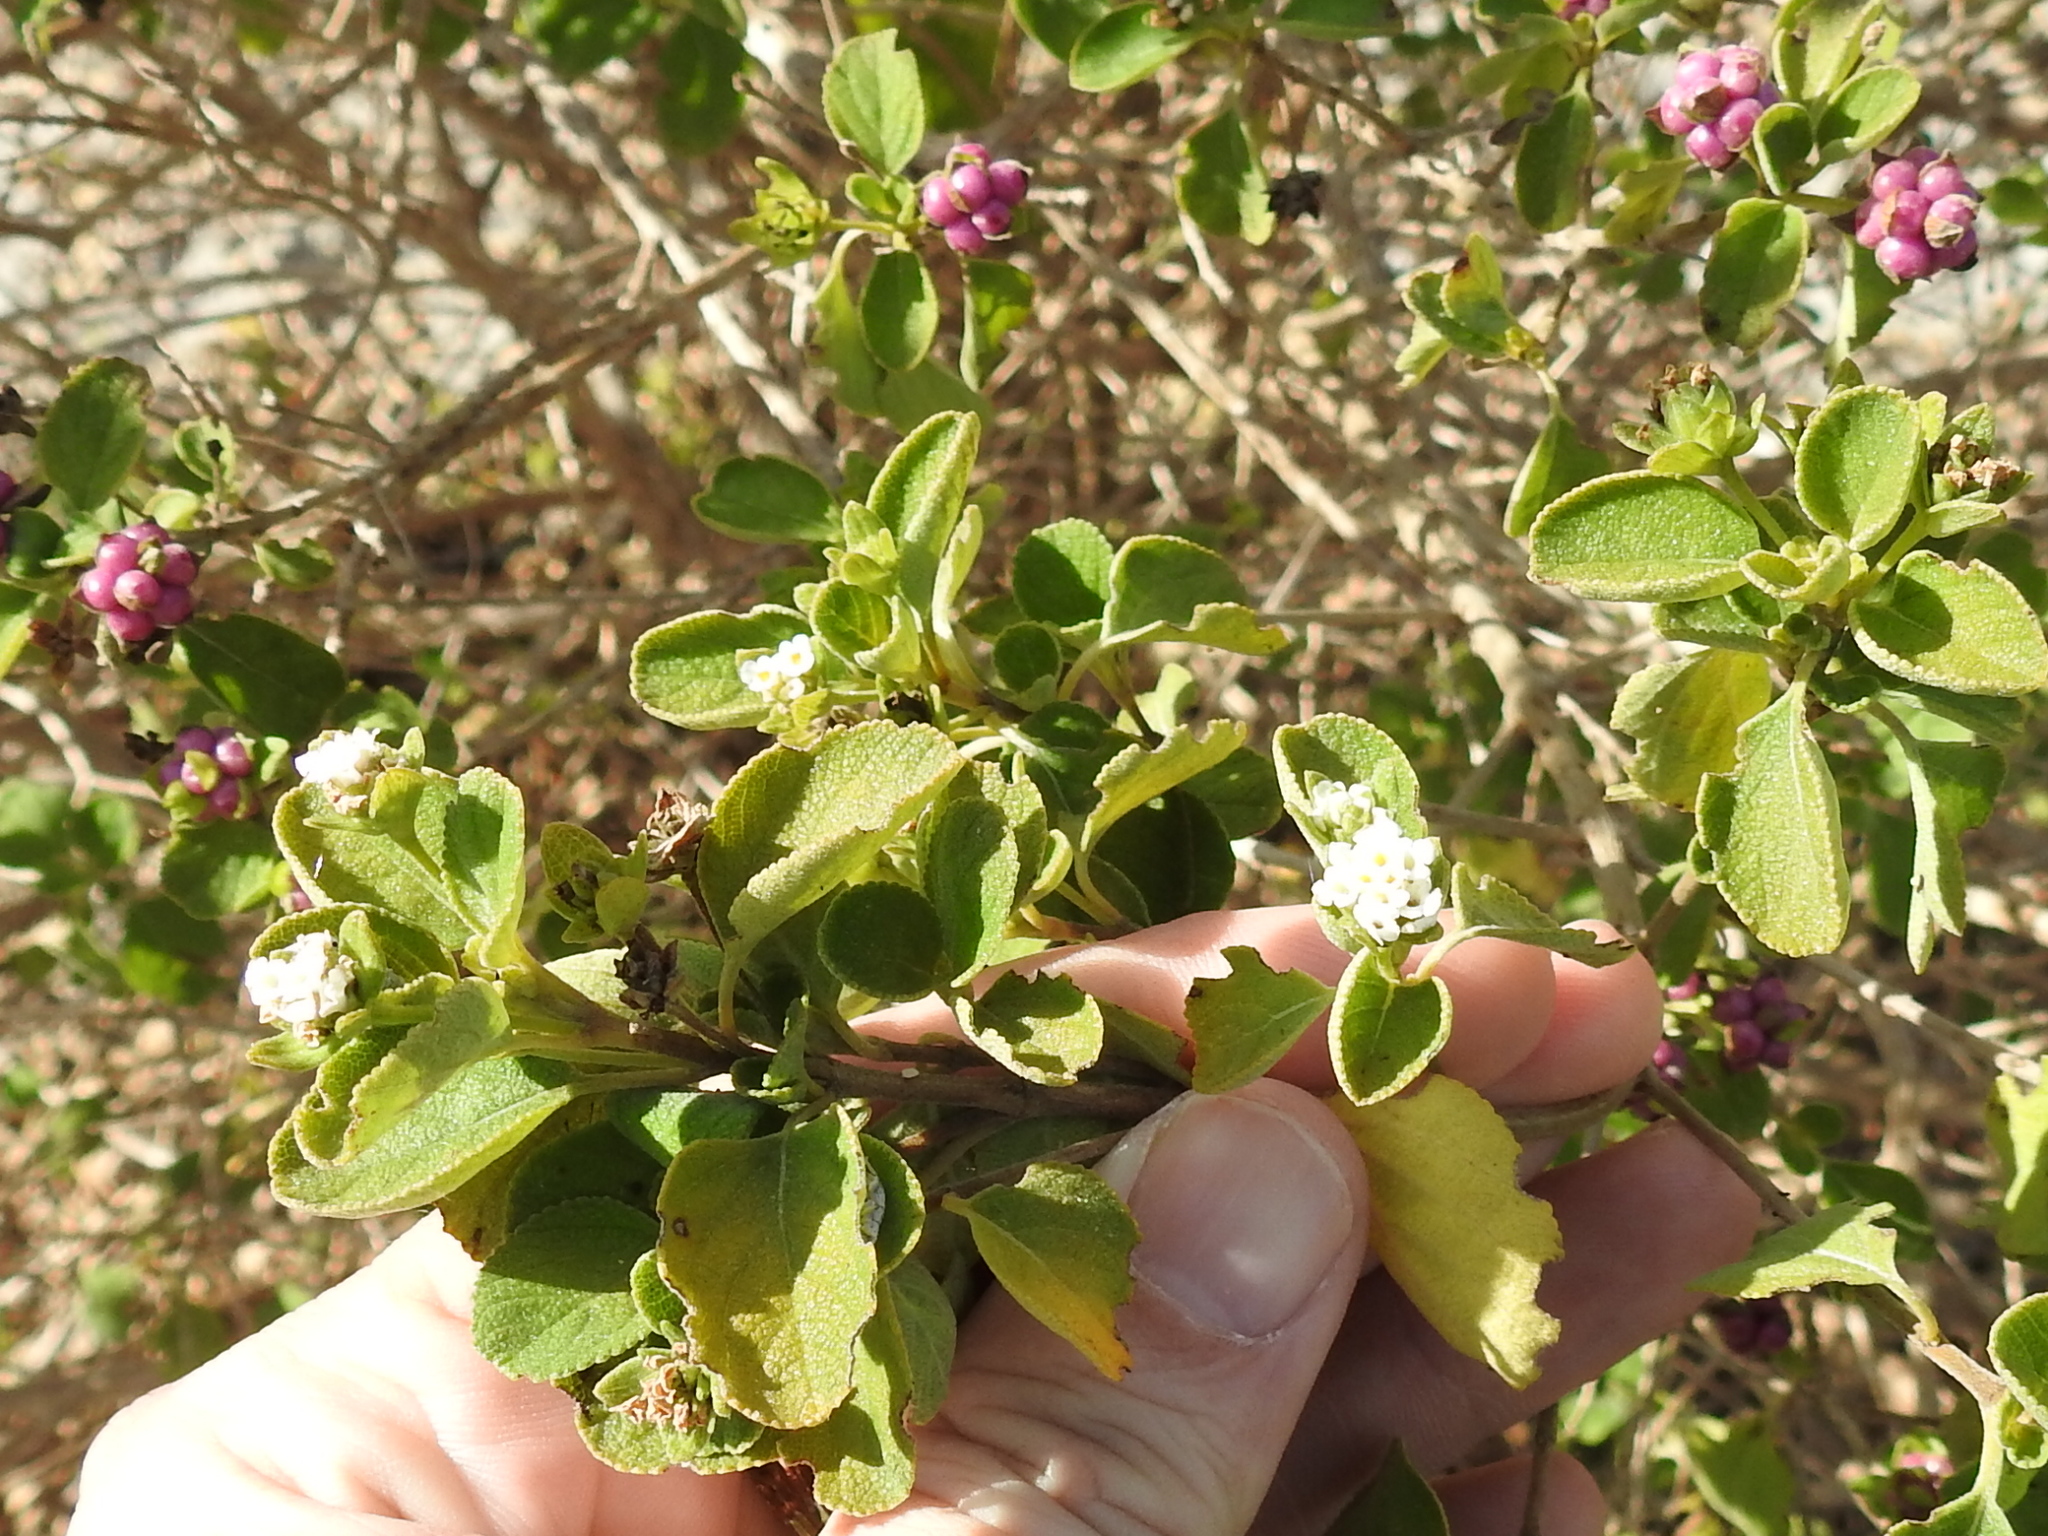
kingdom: Plantae
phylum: Tracheophyta
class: Magnoliopsida
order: Lamiales
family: Verbenaceae
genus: Lantana
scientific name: Lantana involucrata
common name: Black sage
